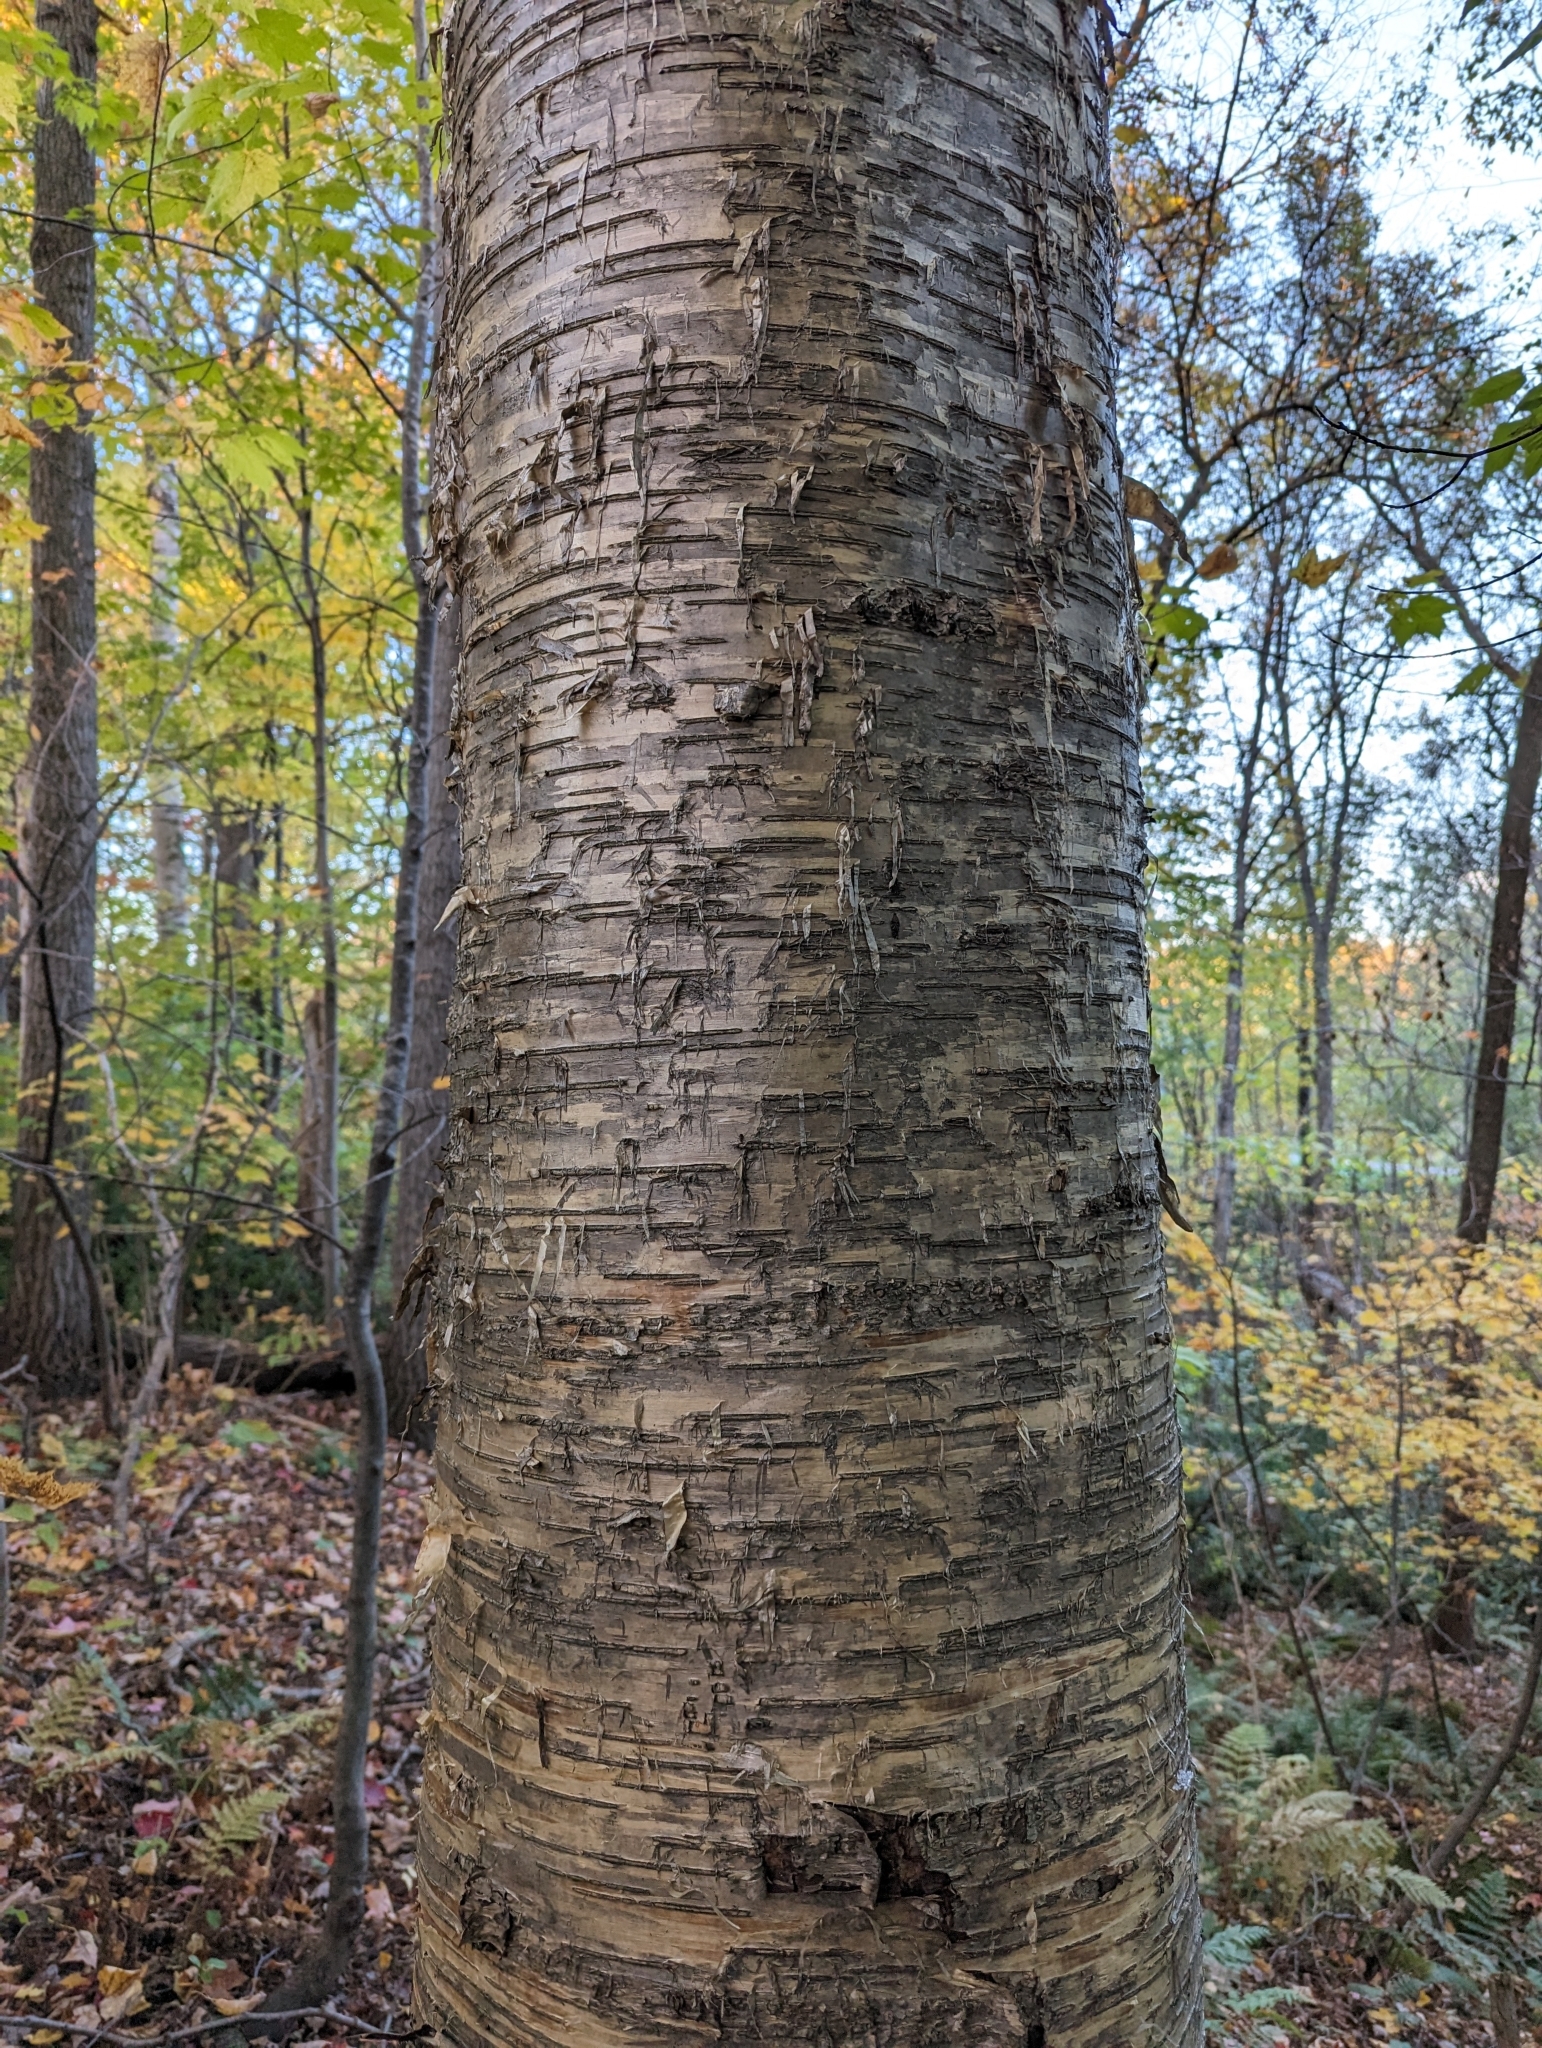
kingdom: Plantae
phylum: Tracheophyta
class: Magnoliopsida
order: Fagales
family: Betulaceae
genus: Betula
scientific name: Betula alleghaniensis
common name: Yellow birch
